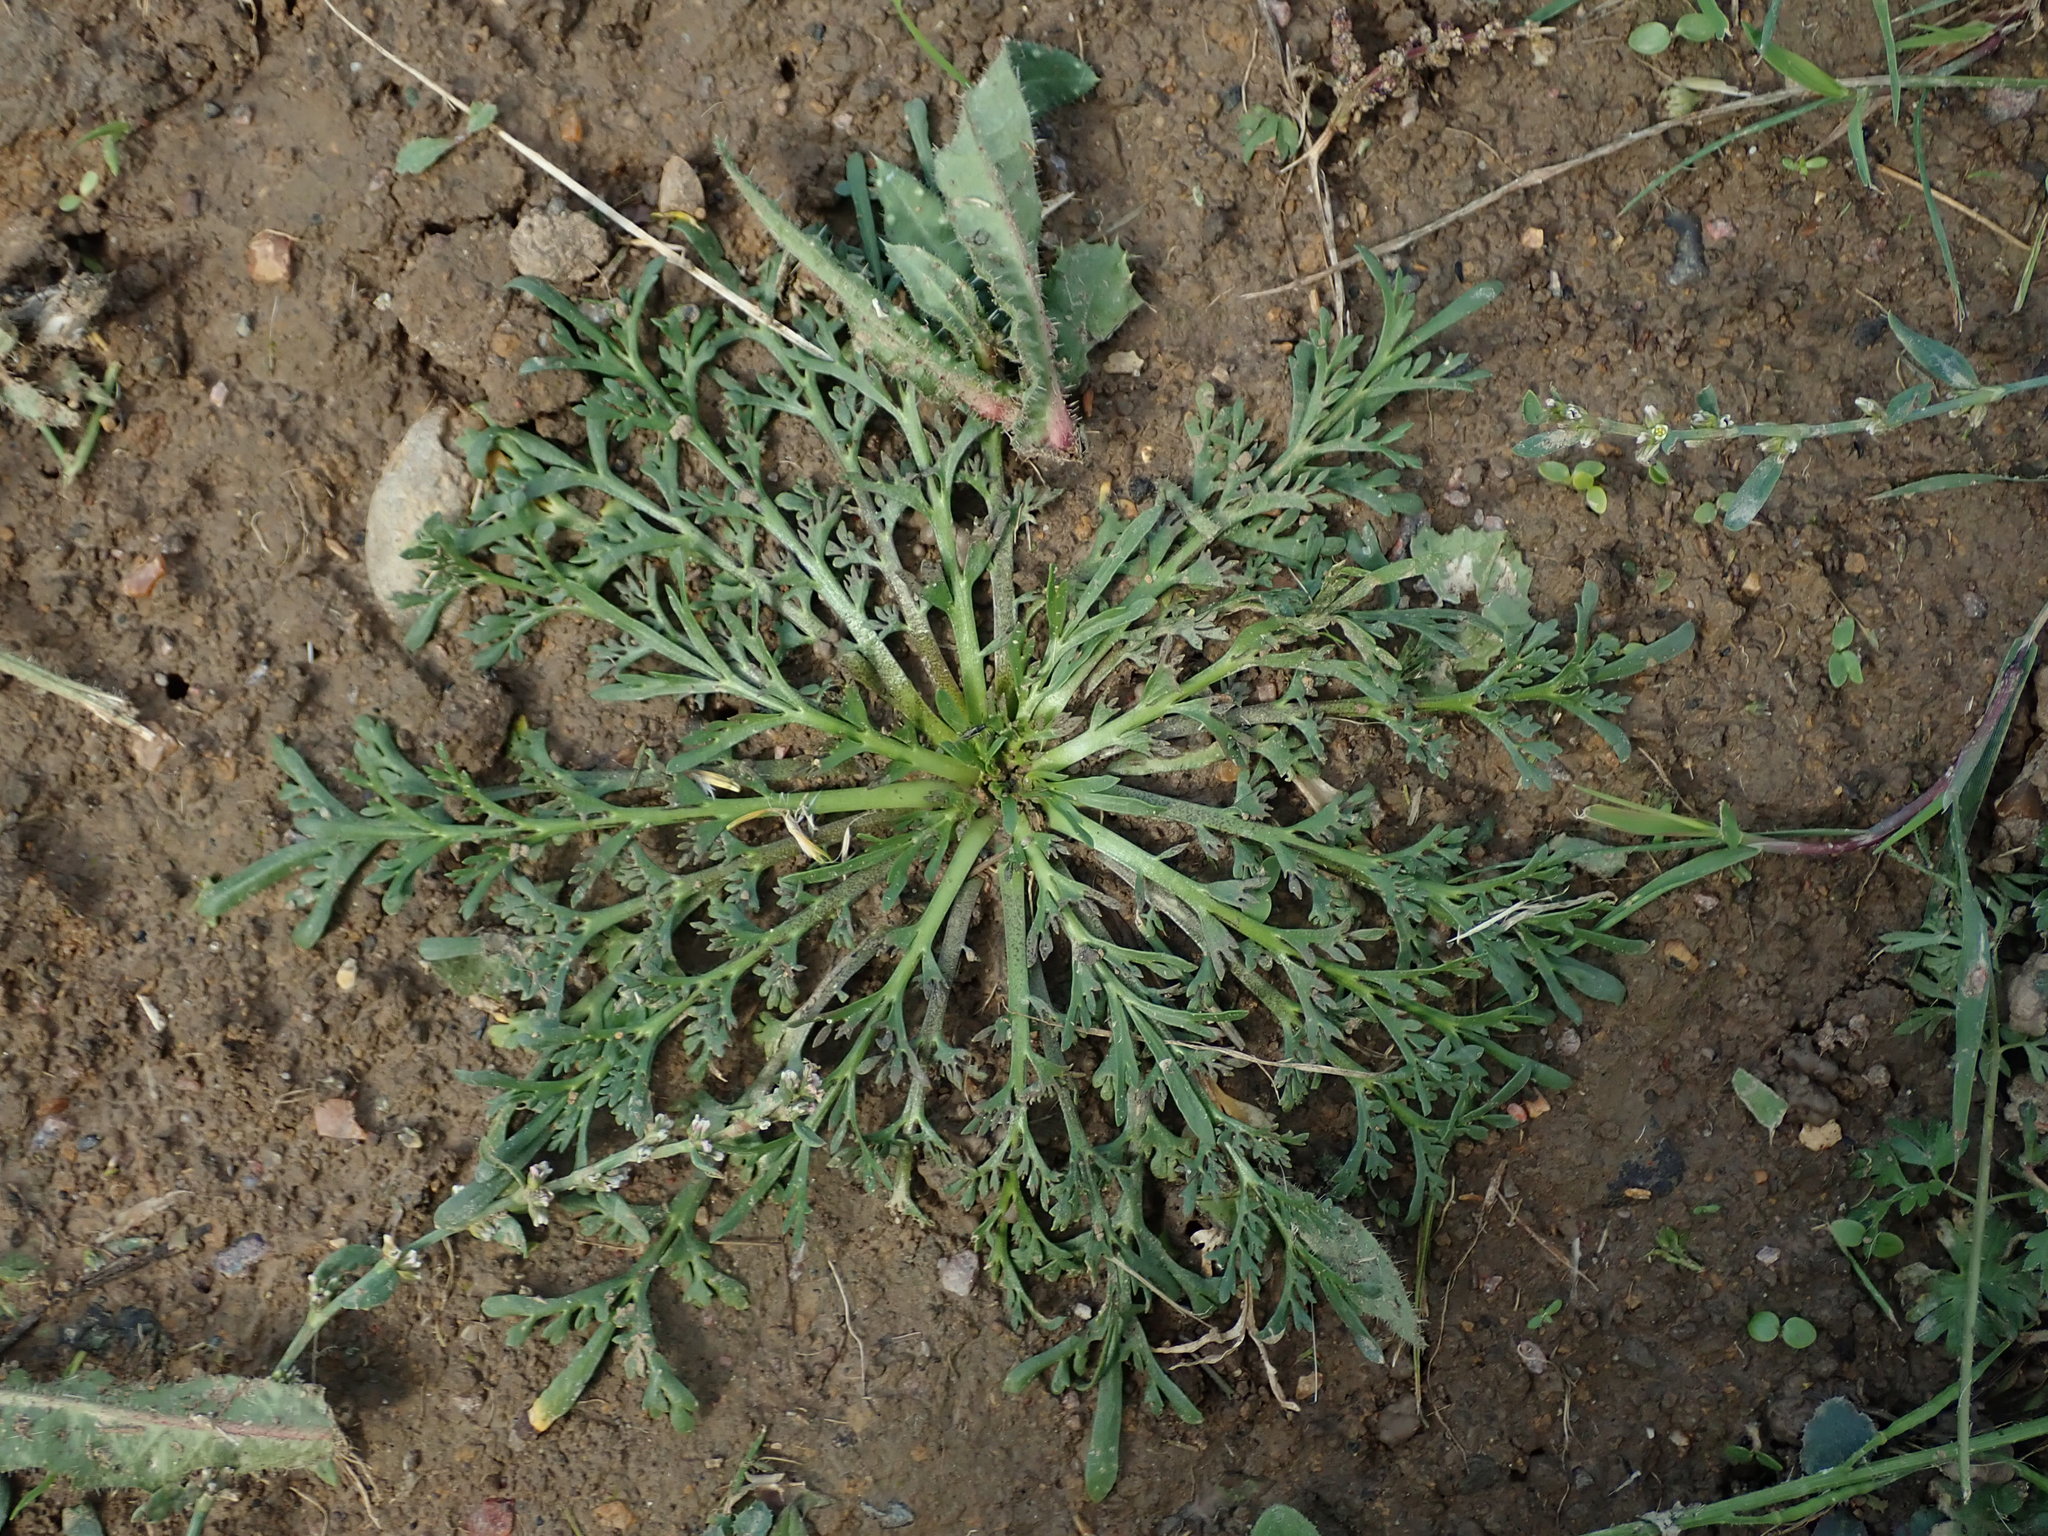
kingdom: Plantae
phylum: Tracheophyta
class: Magnoliopsida
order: Brassicales
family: Brassicaceae
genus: Lepidium
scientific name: Lepidium didymum
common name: Lesser swinecress
